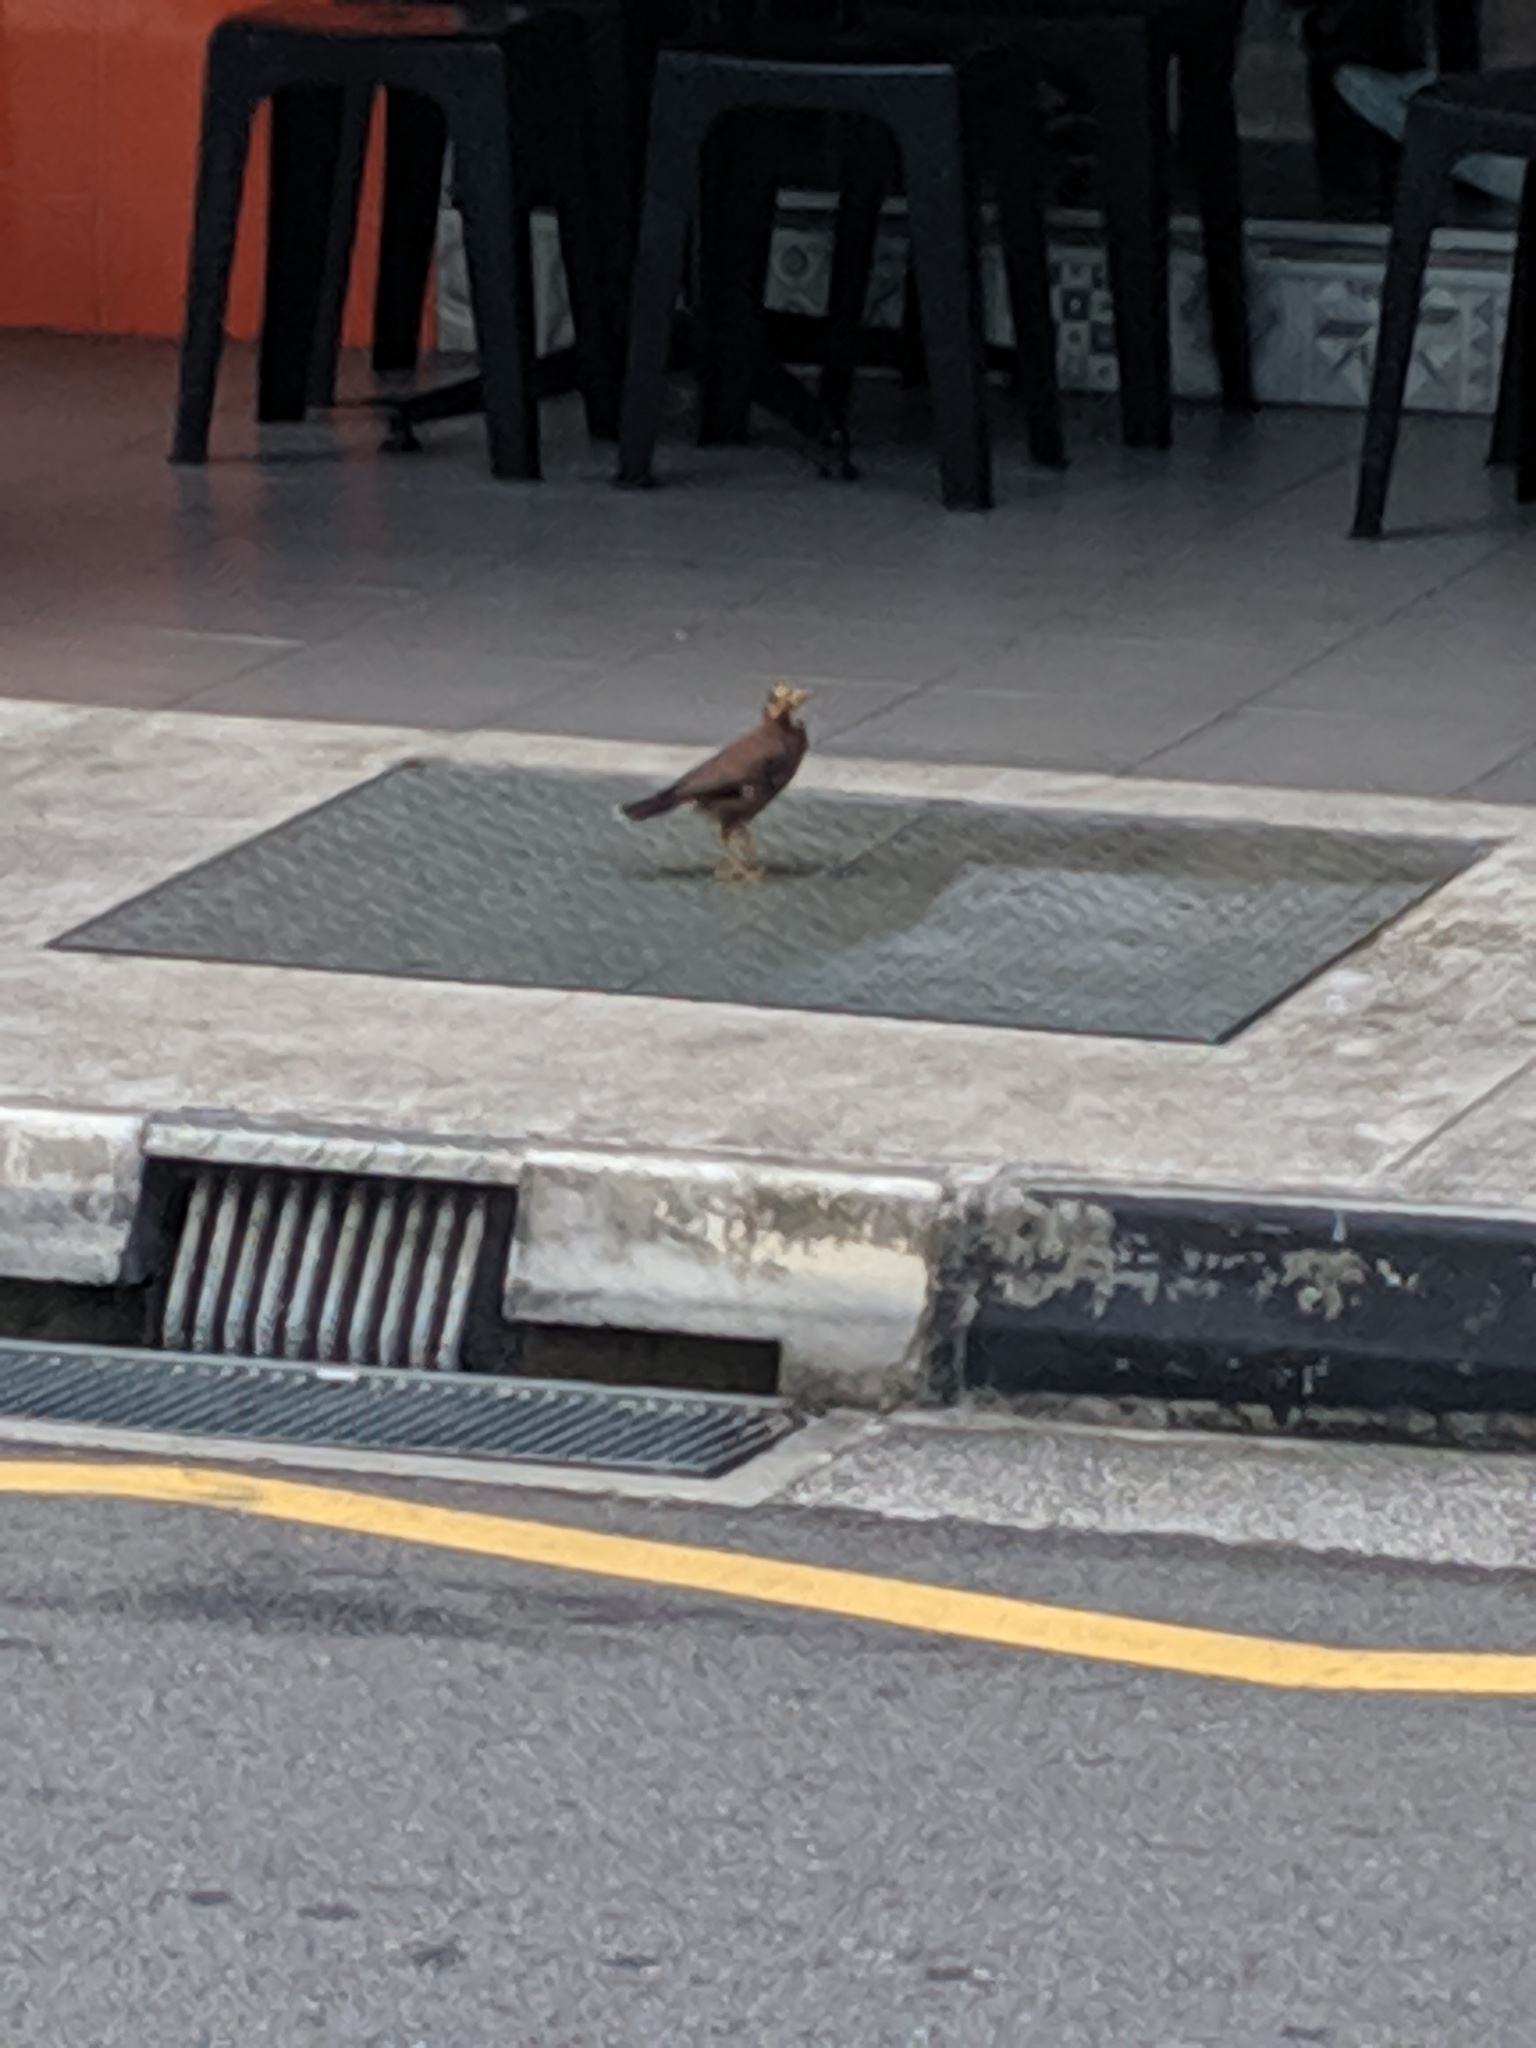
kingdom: Animalia
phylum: Chordata
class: Aves
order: Passeriformes
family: Sturnidae
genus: Acridotheres
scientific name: Acridotheres tristis
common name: Common myna
